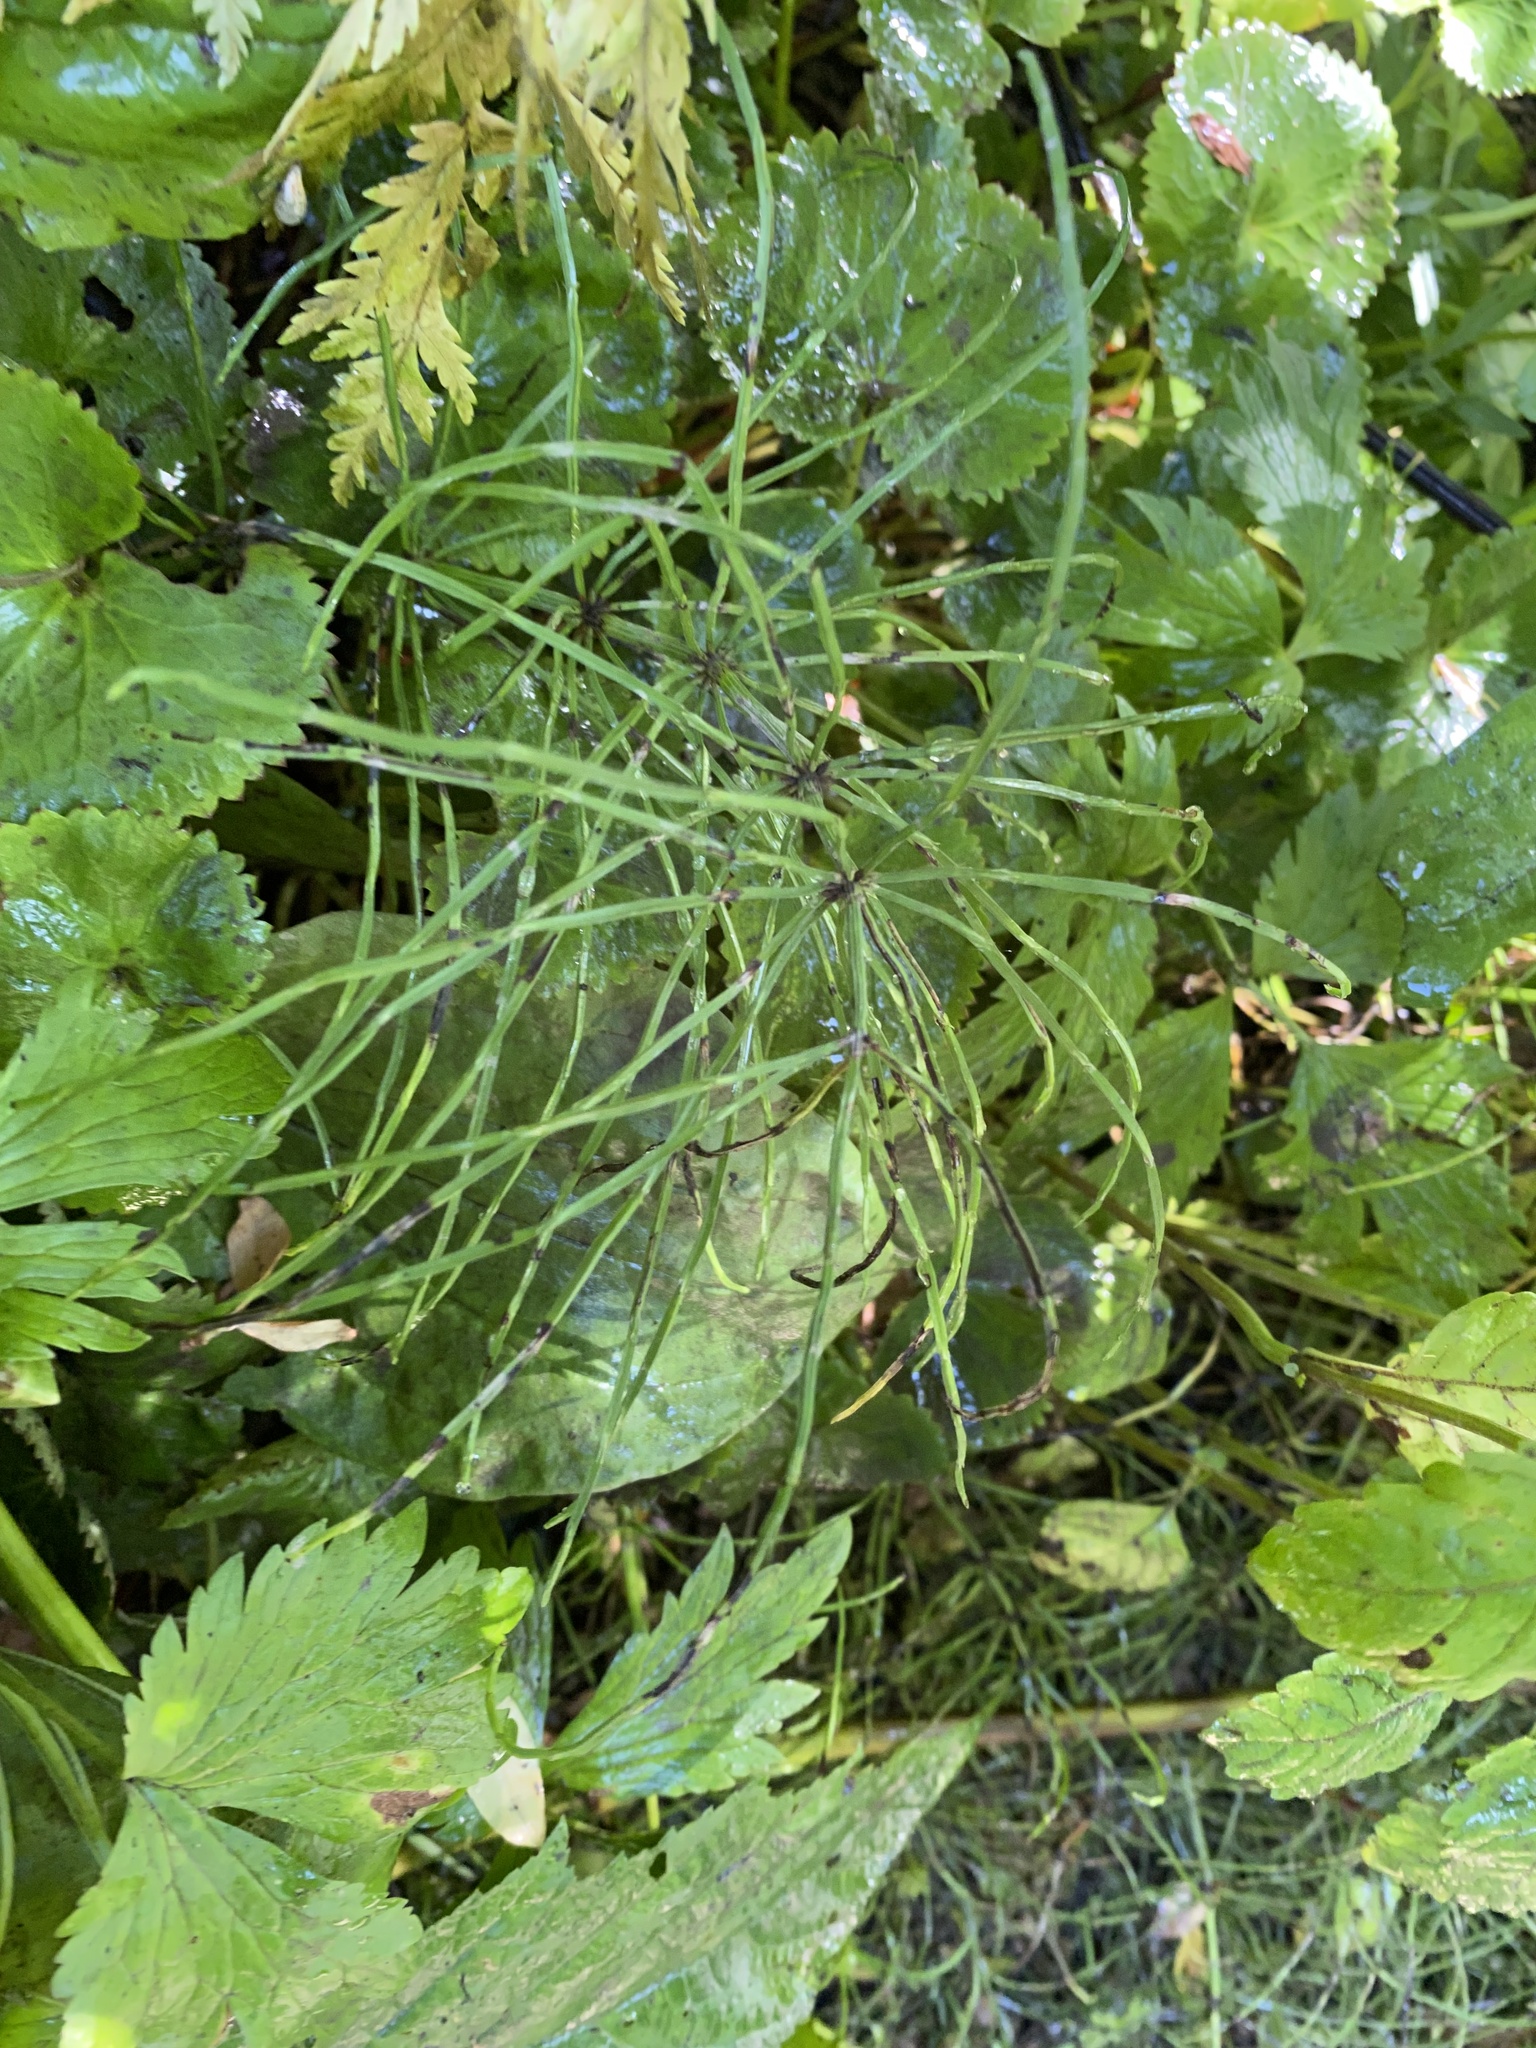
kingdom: Plantae
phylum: Tracheophyta
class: Polypodiopsida
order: Equisetales
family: Equisetaceae
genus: Equisetum
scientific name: Equisetum arvense
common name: Field horsetail
